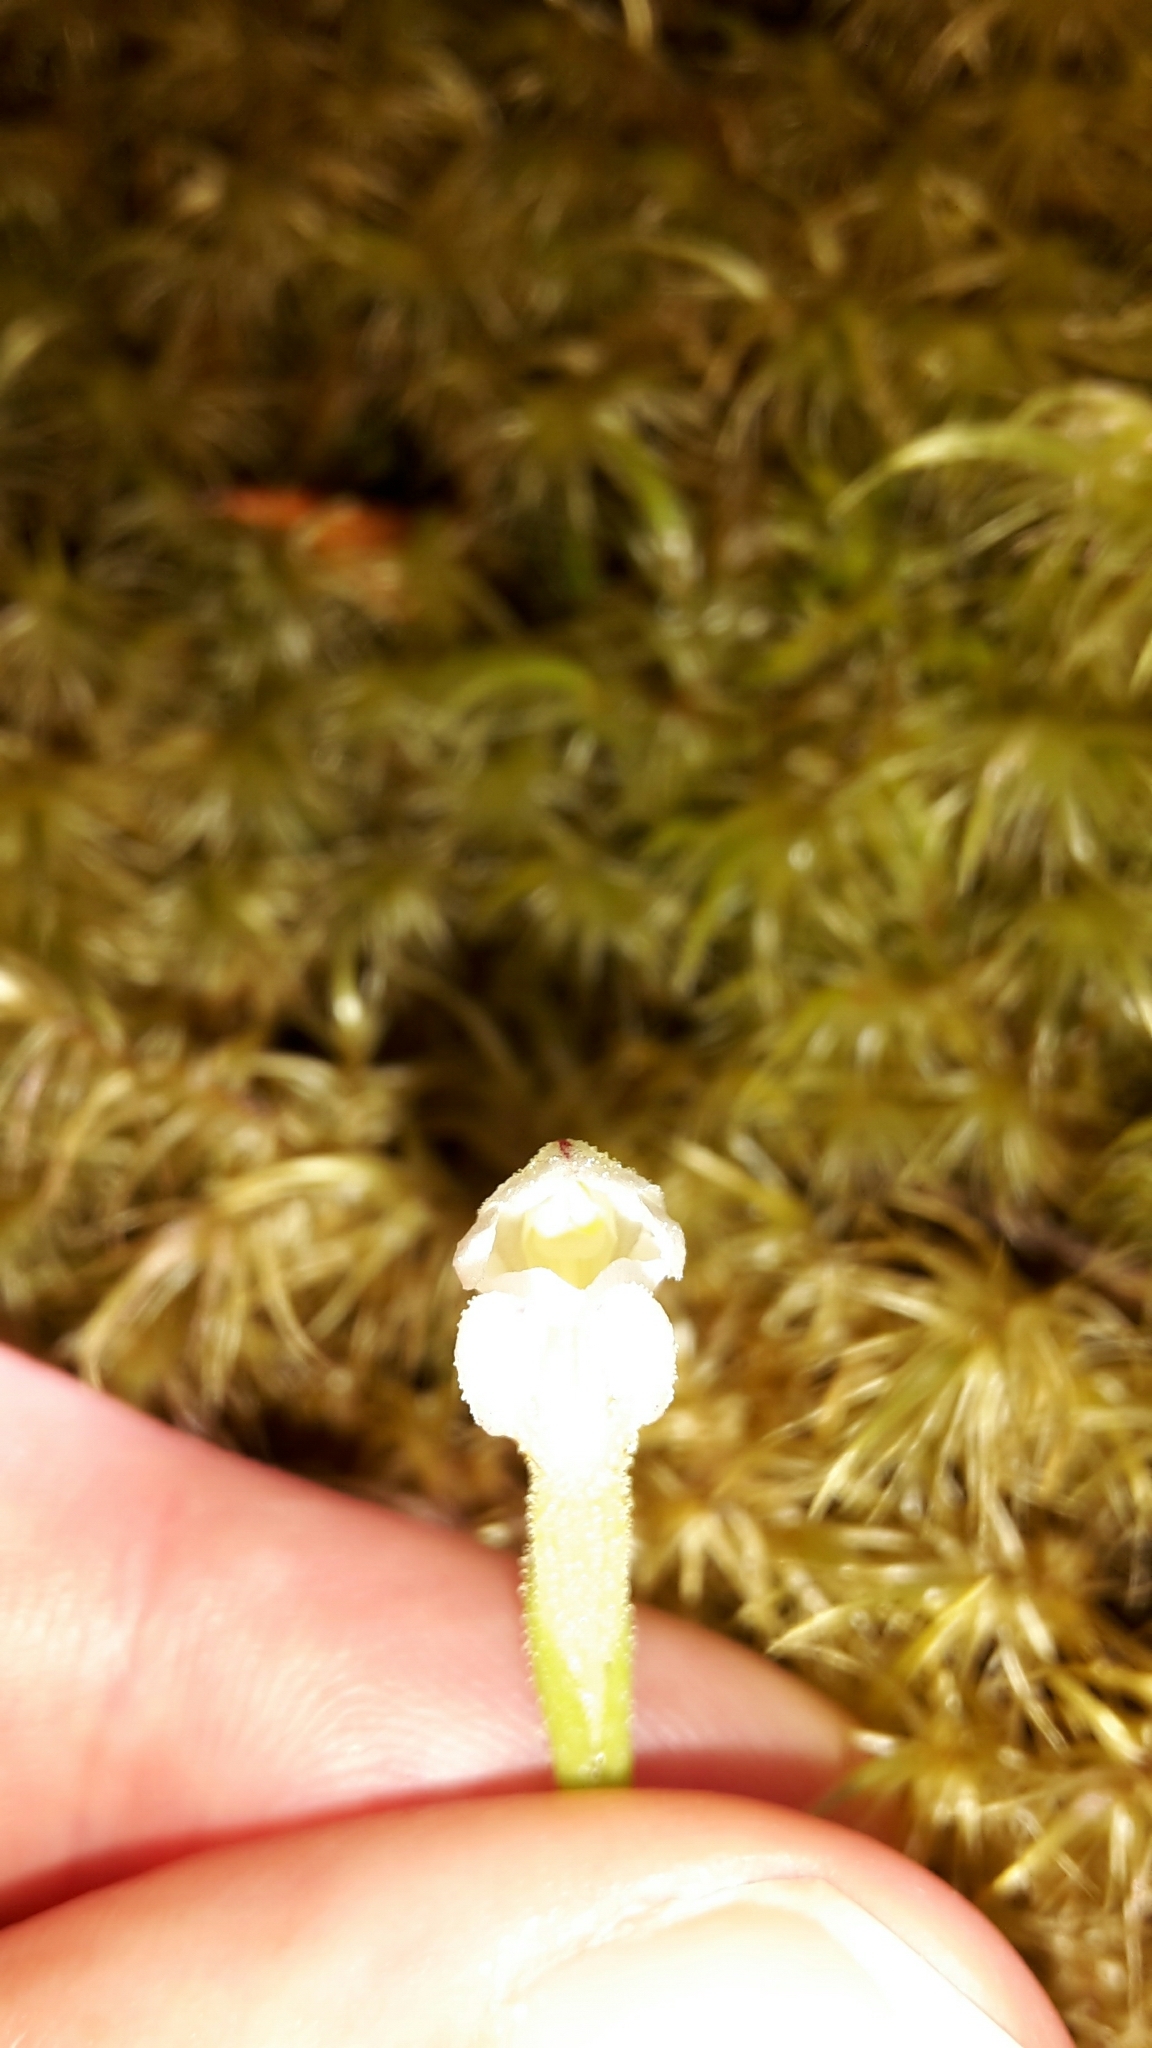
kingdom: Plantae
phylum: Tracheophyta
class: Liliopsida
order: Asparagales
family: Orchidaceae
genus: Aporostylis
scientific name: Aporostylis bifolia
